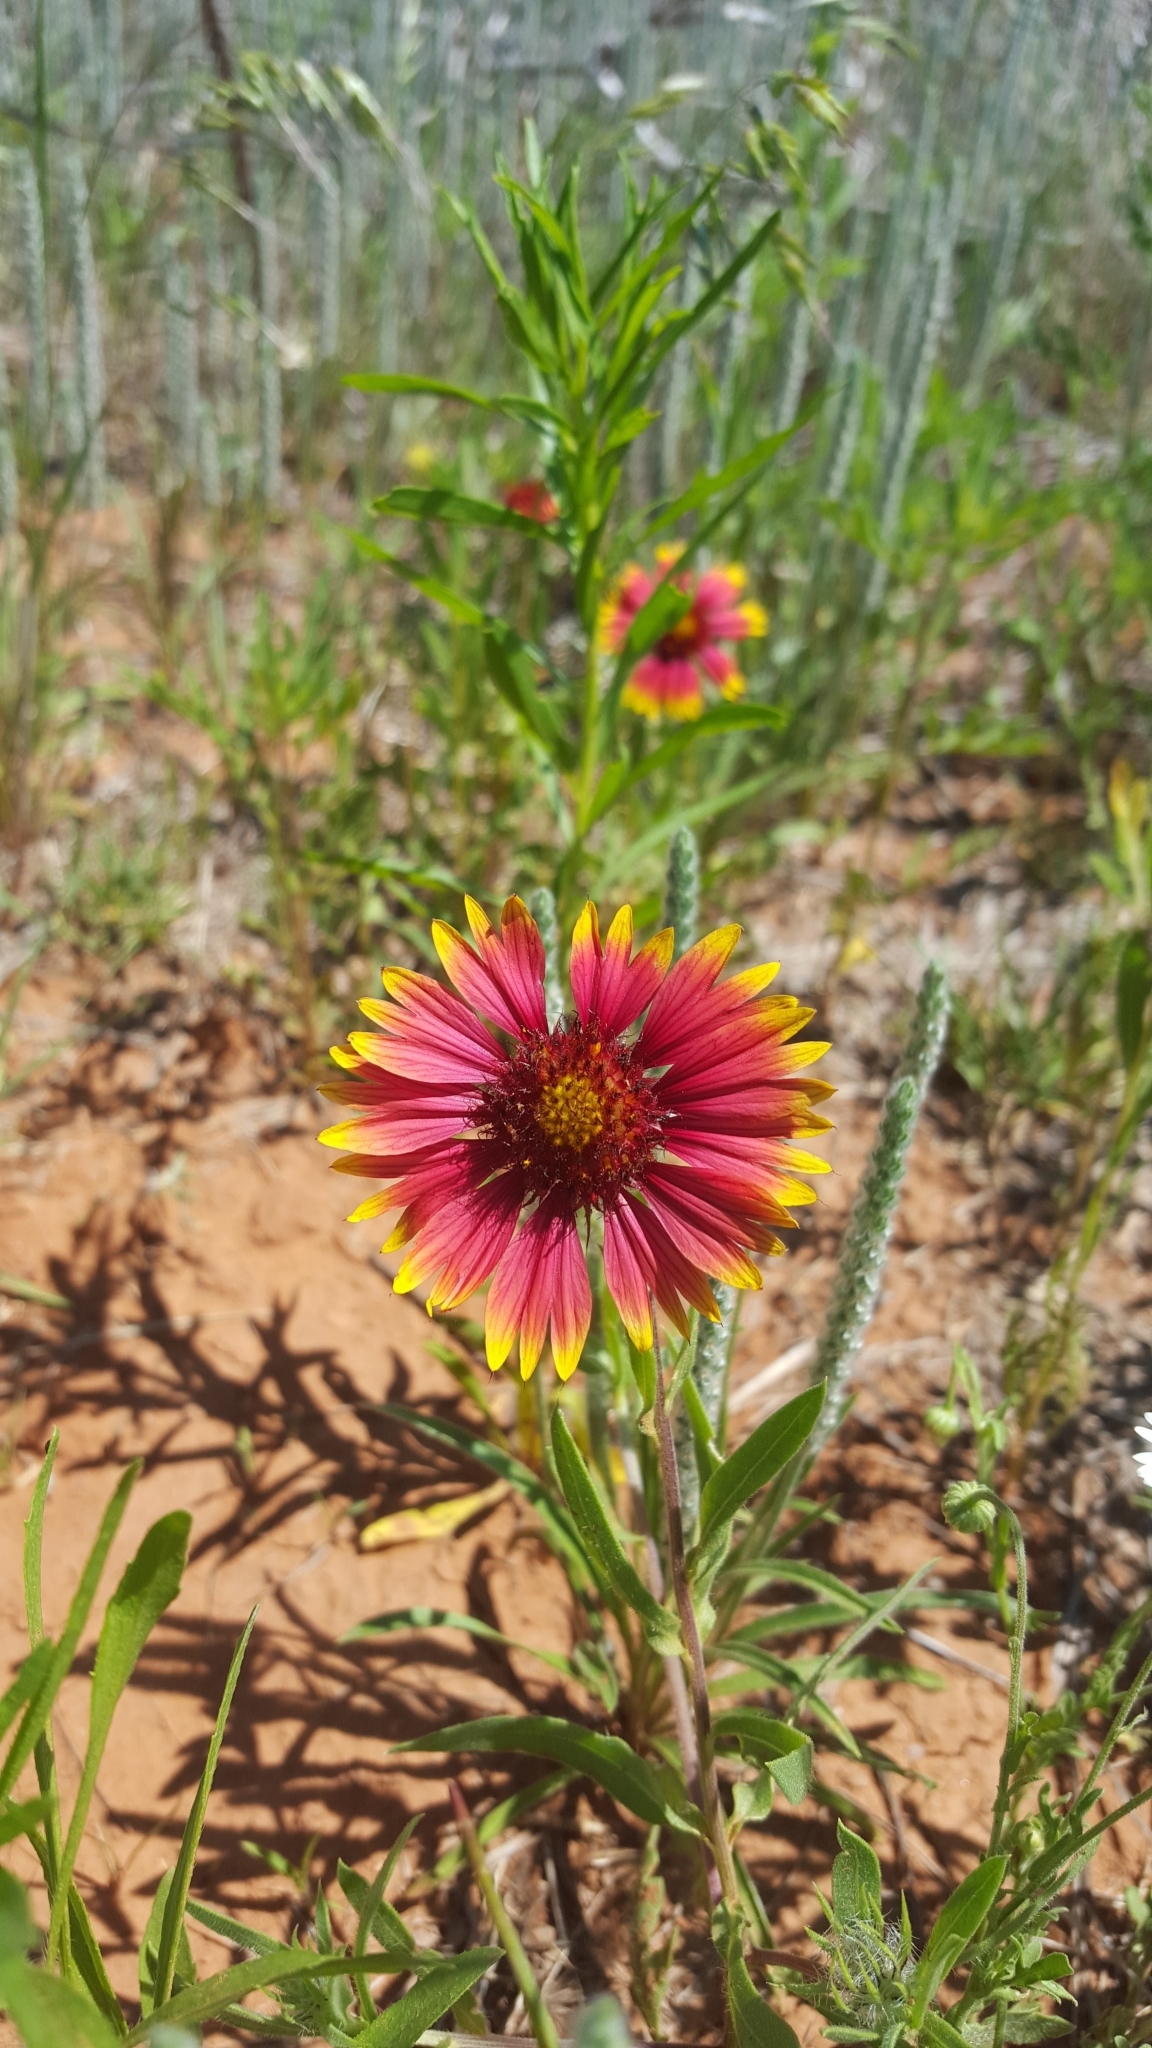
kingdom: Plantae
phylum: Tracheophyta
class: Magnoliopsida
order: Asterales
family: Asteraceae
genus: Gaillardia
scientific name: Gaillardia pulchella
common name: Firewheel
